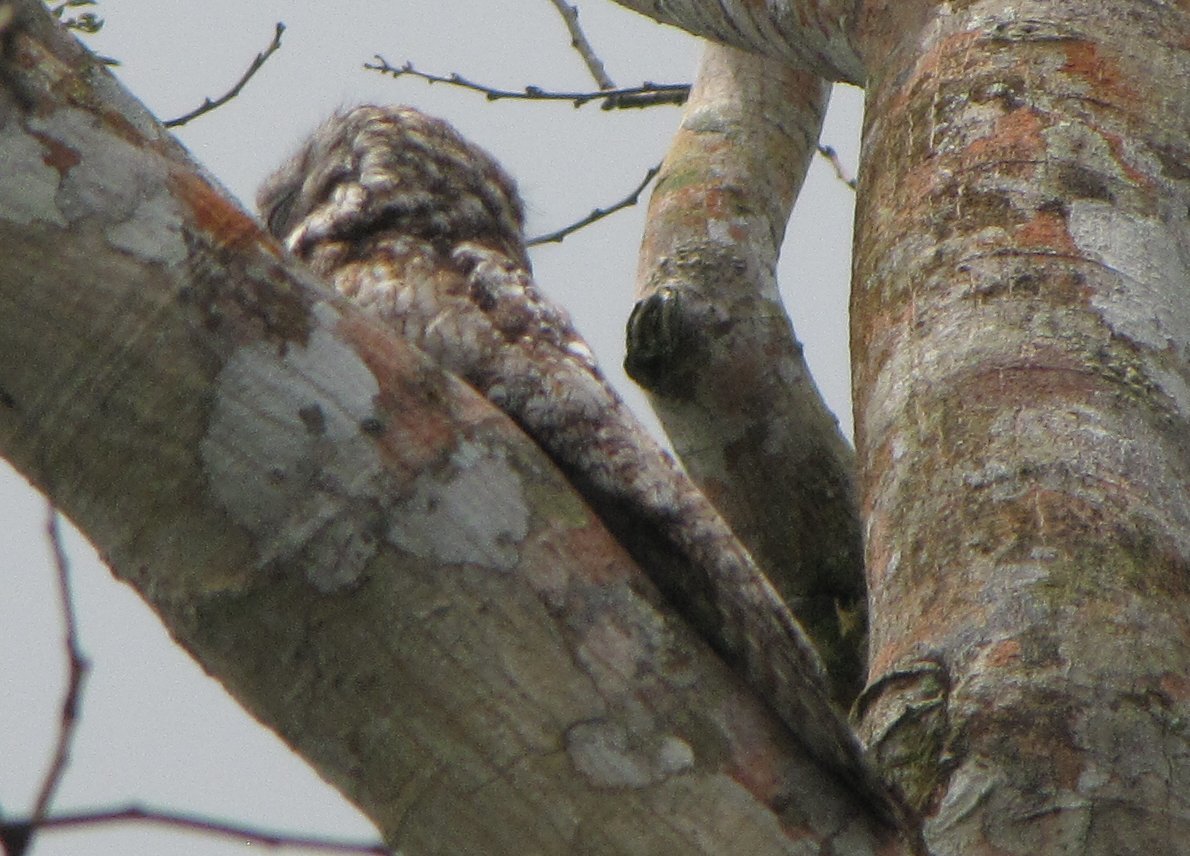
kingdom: Animalia
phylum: Chordata
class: Aves
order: Nyctibiiformes
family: Nyctibiidae
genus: Nyctibius
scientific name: Nyctibius grandis
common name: Great potoo
